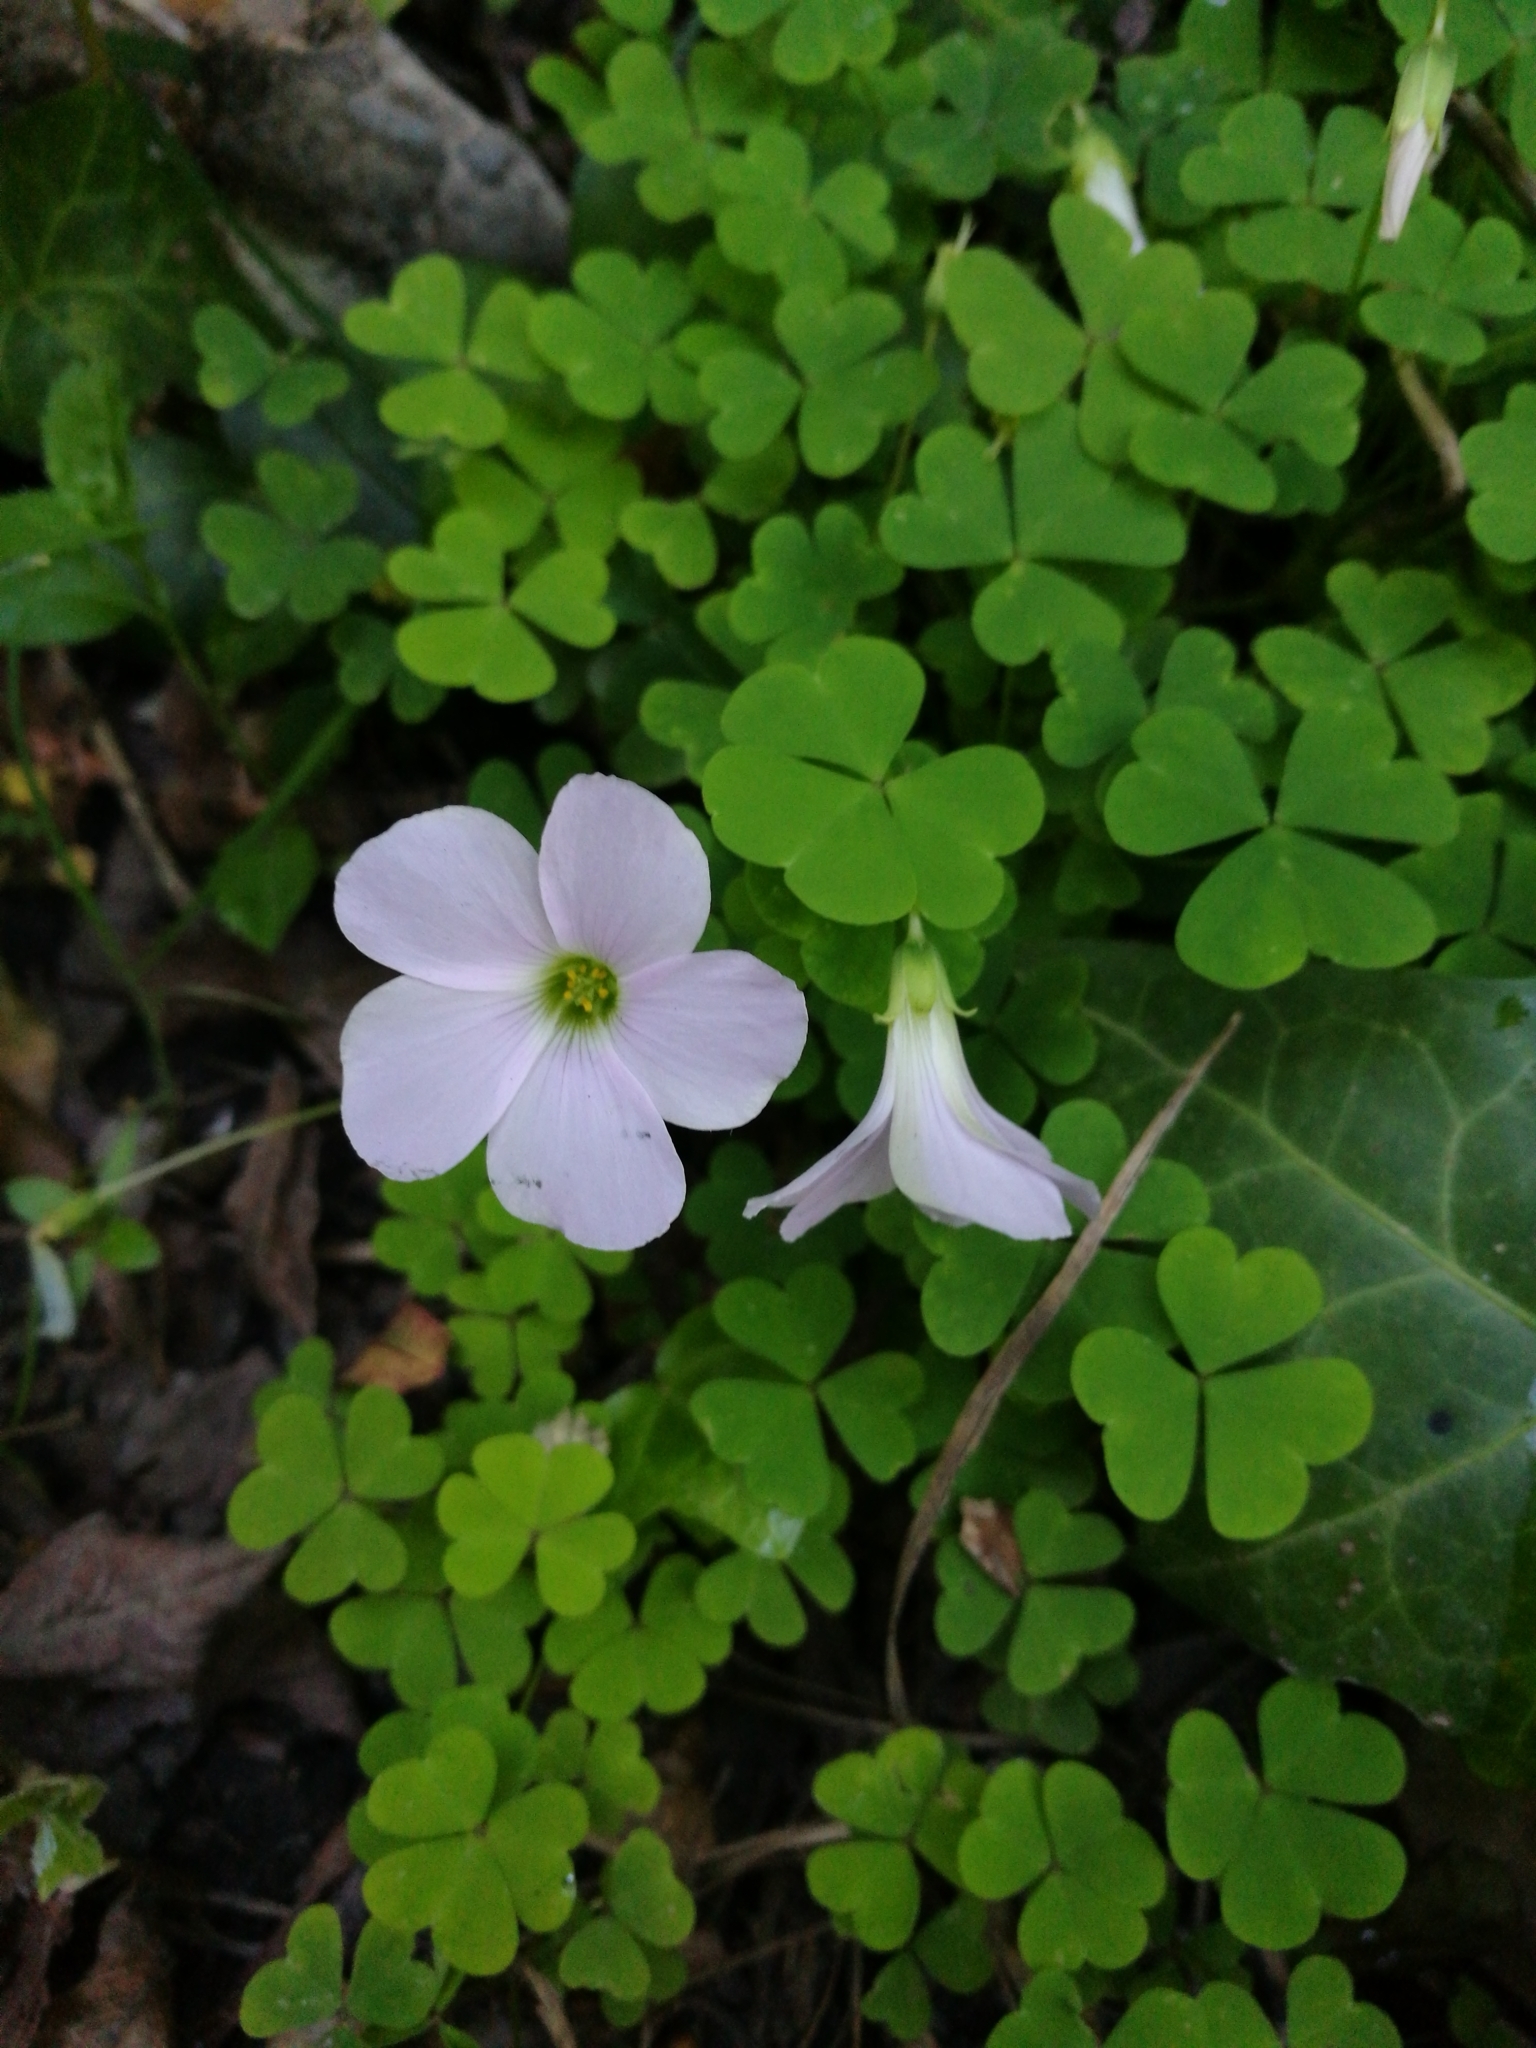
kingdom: Plantae
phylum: Tracheophyta
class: Magnoliopsida
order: Oxalidales
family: Oxalidaceae
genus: Oxalis
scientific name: Oxalis incarnata
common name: Pale pink-sorrel
